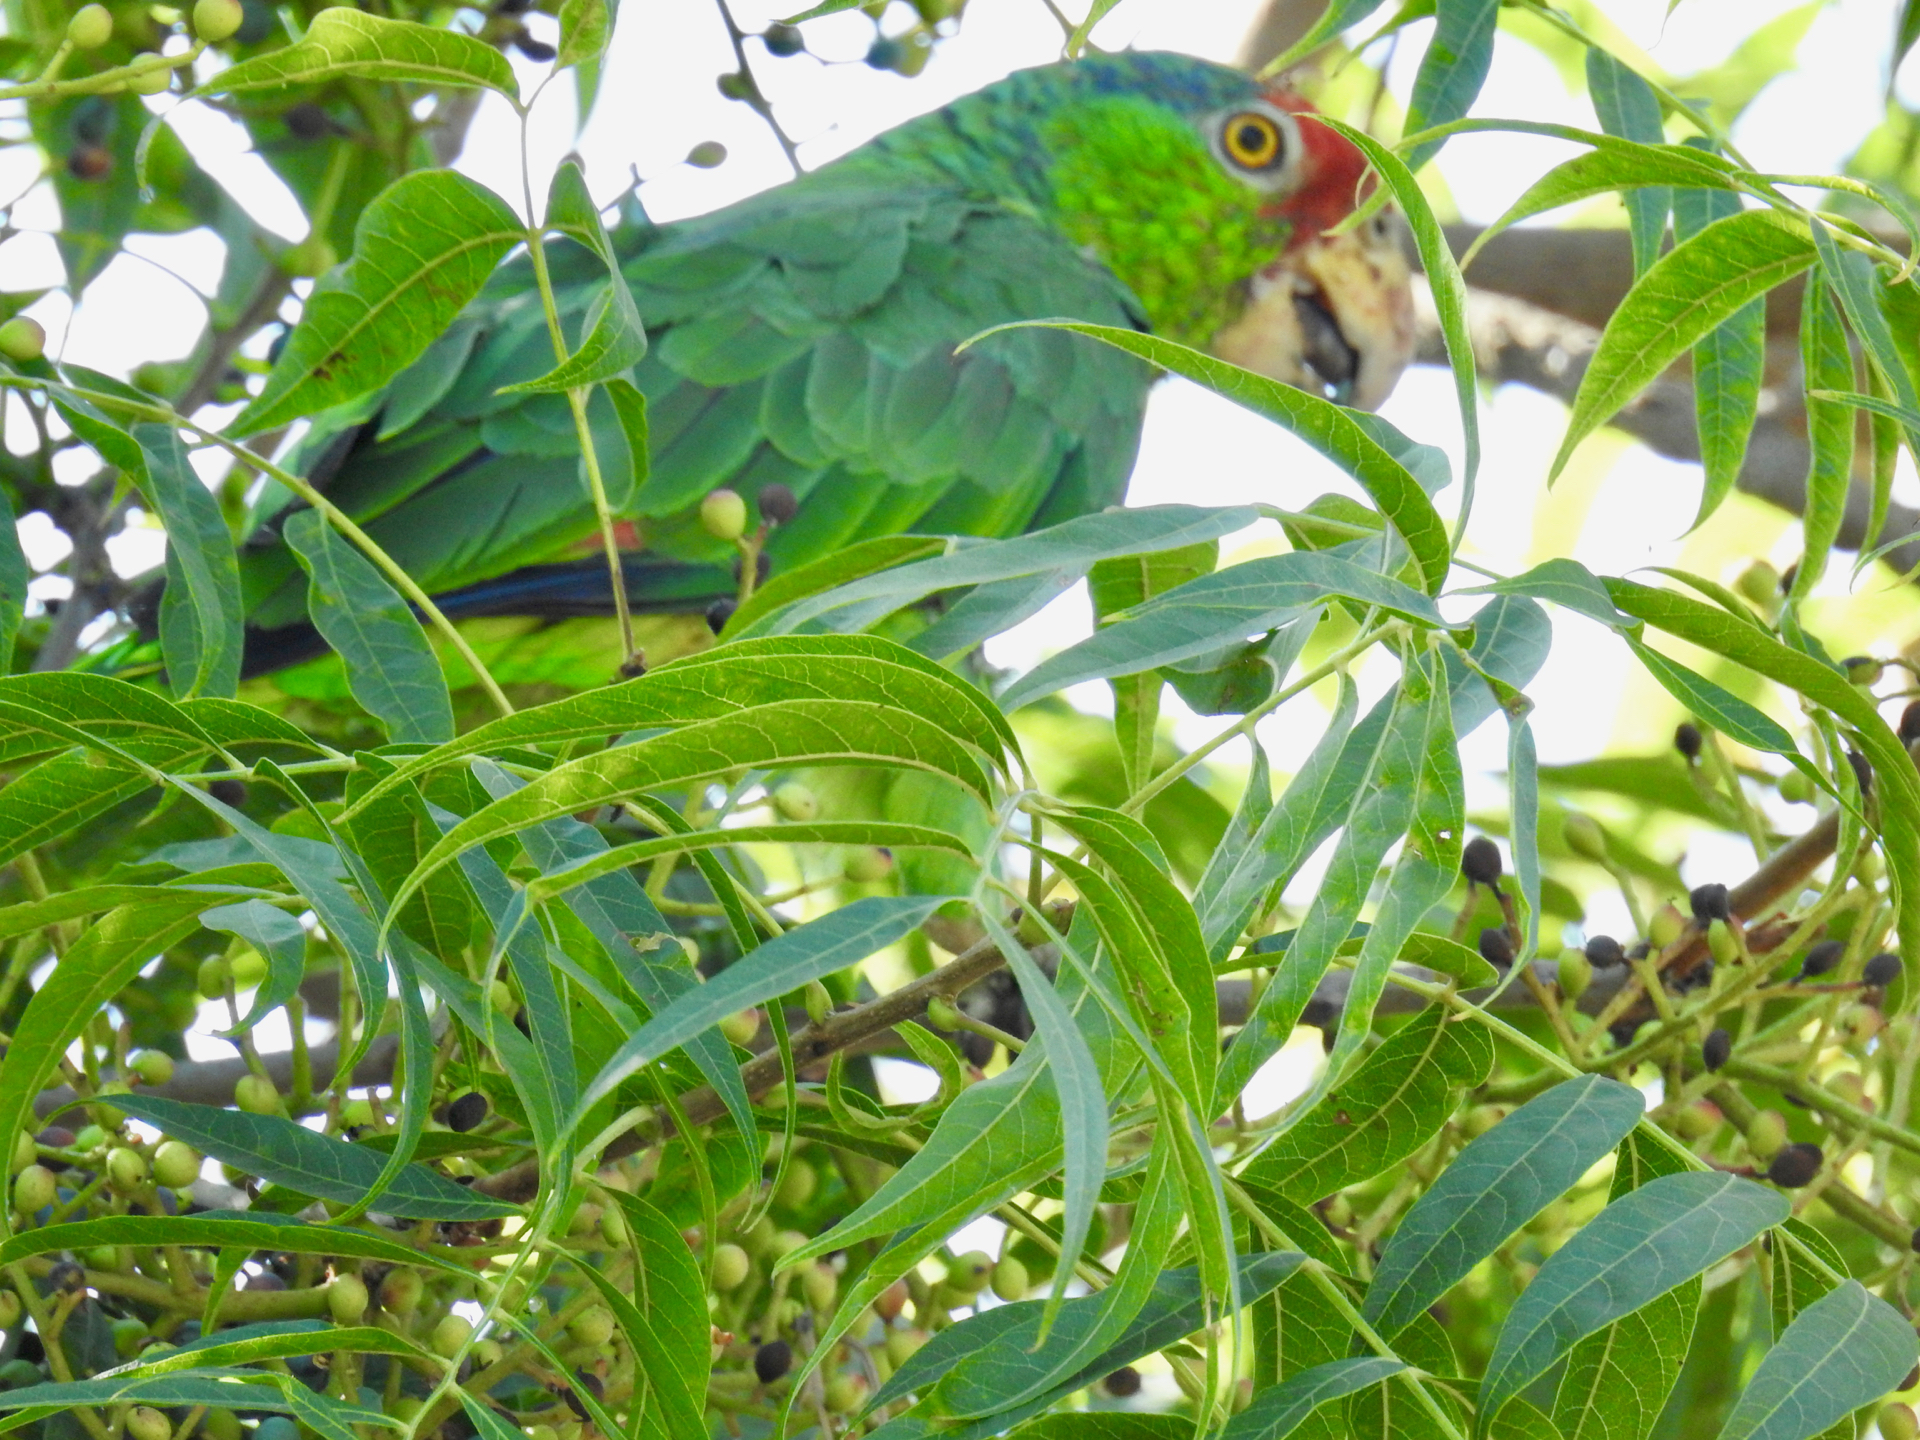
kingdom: Animalia
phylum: Chordata
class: Aves
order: Psittaciformes
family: Psittacidae
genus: Amazona
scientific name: Amazona viridigenalis
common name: Red-crowned amazon
